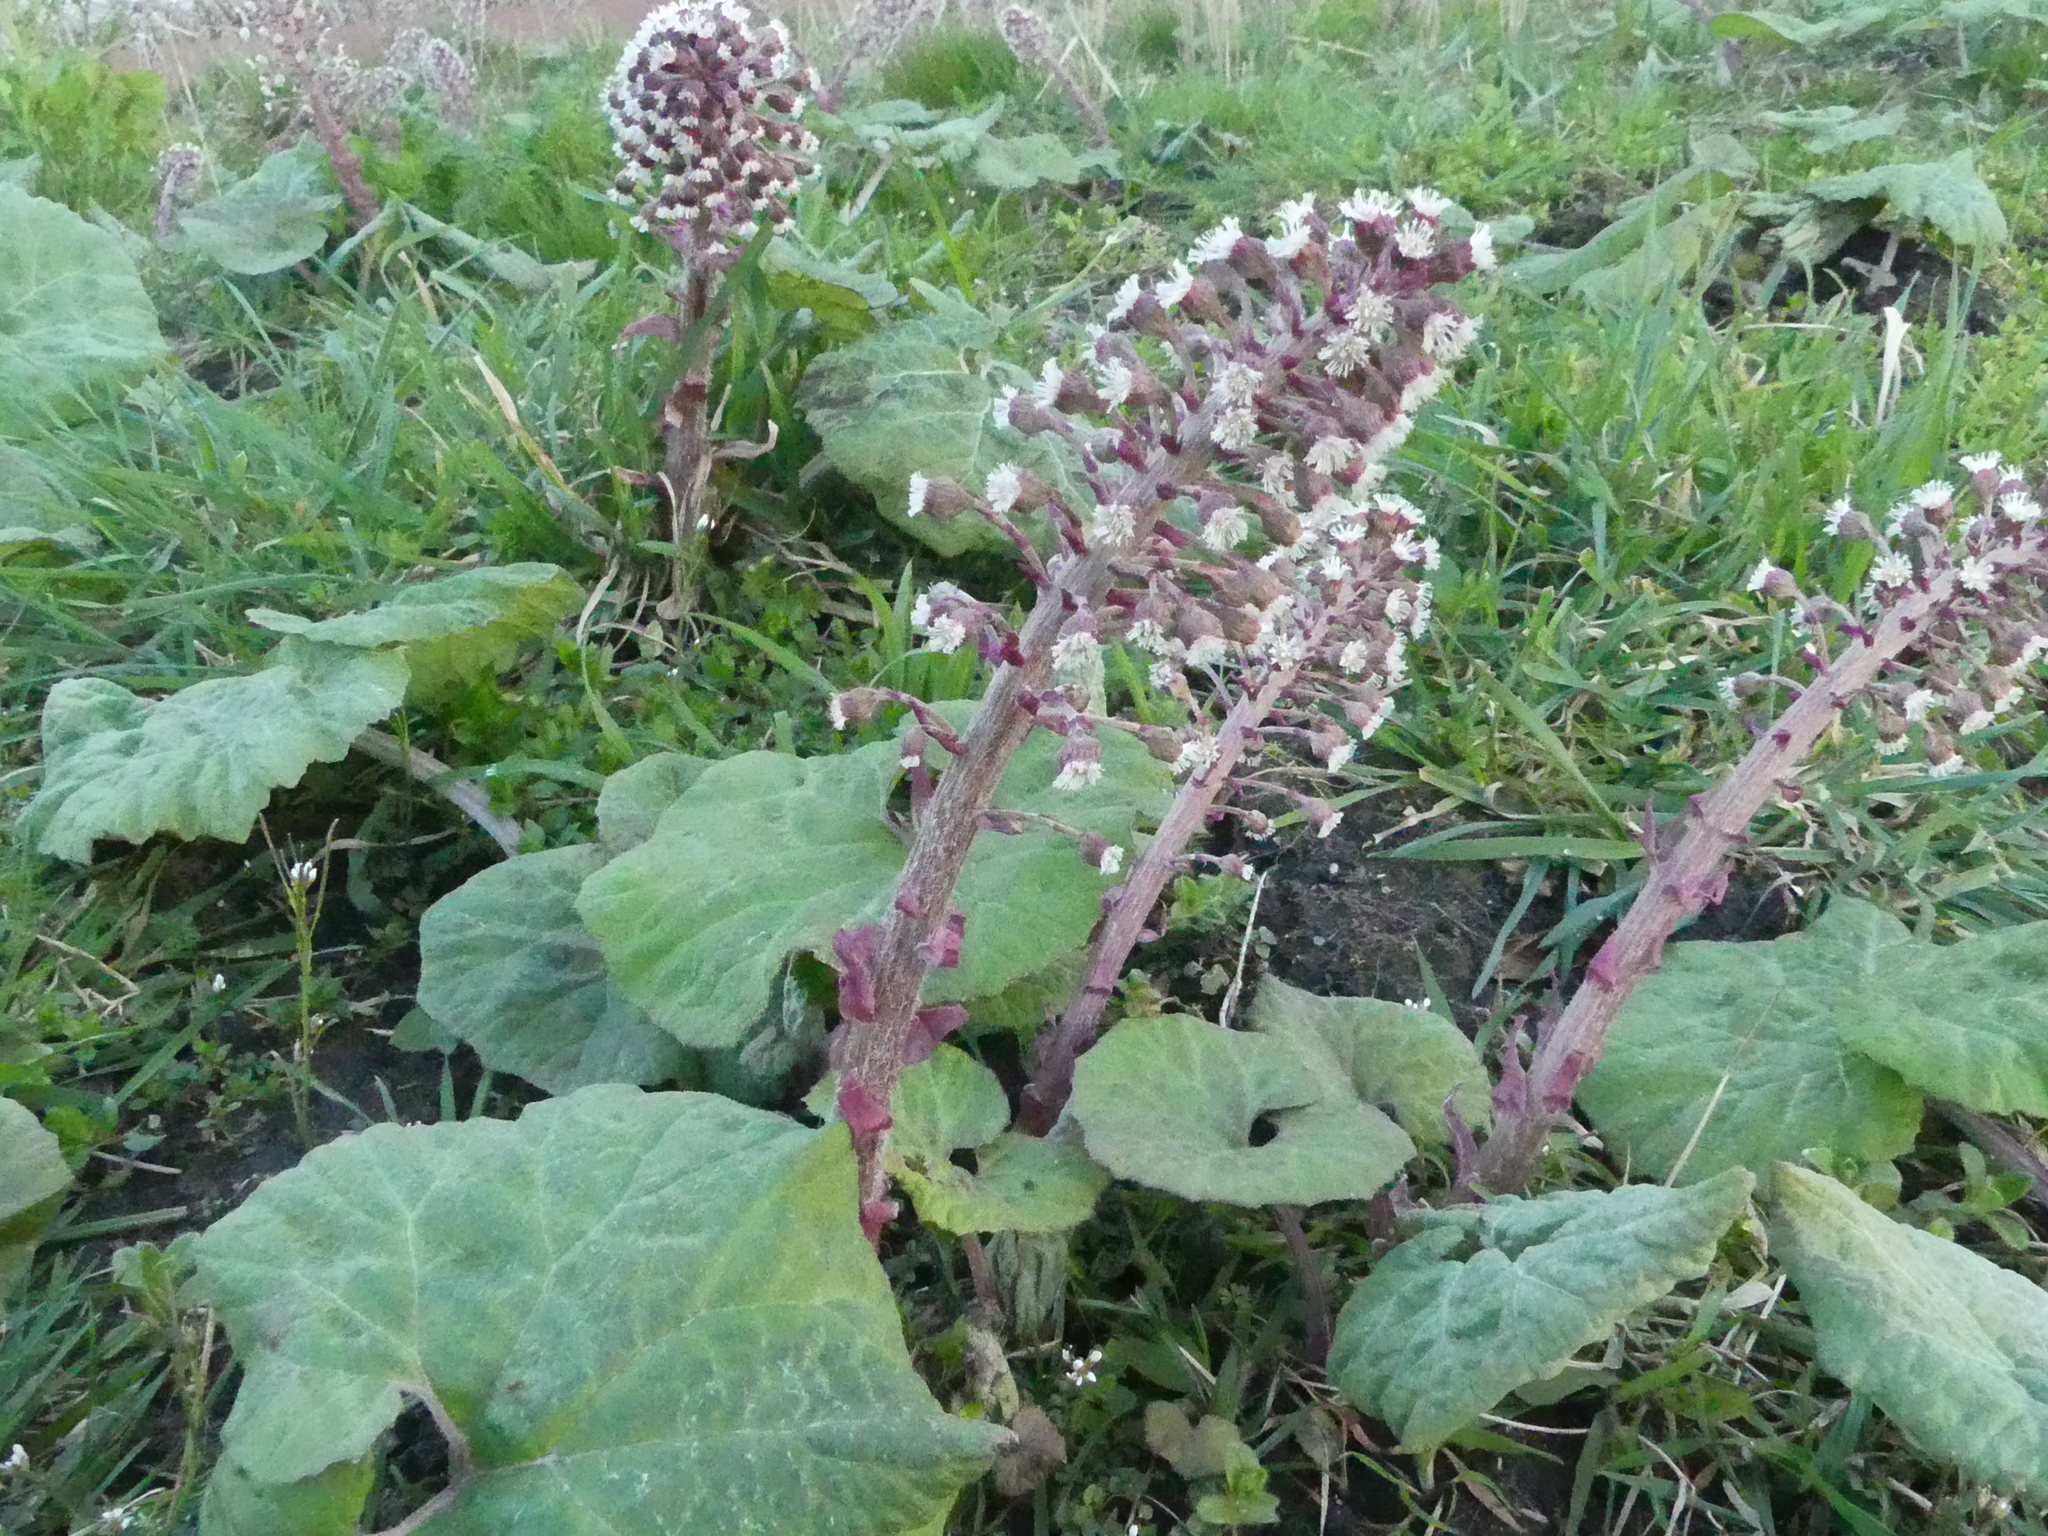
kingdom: Plantae
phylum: Tracheophyta
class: Magnoliopsida
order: Asterales
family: Asteraceae
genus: Petasites
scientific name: Petasites hybridus
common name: Butterbur
